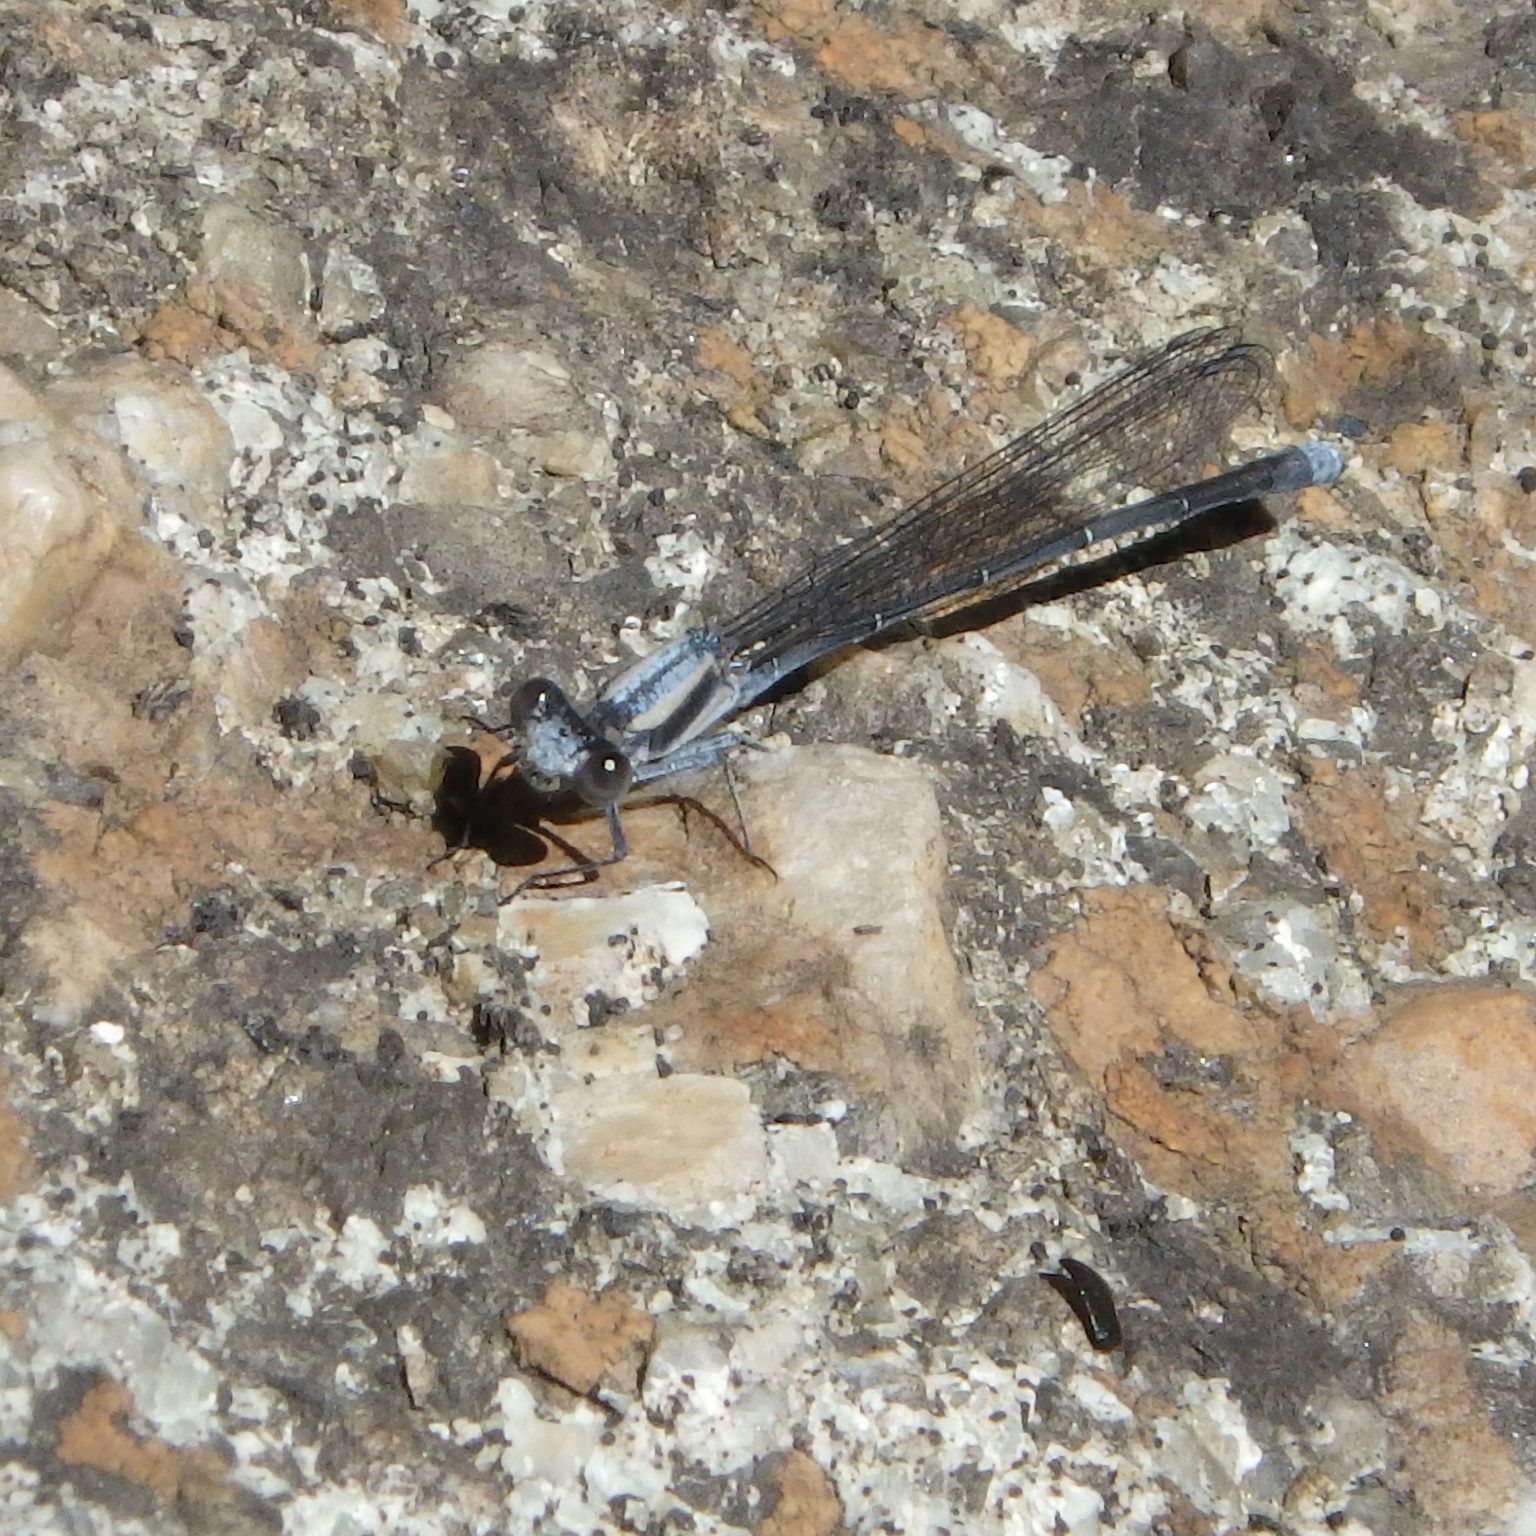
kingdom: Animalia
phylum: Arthropoda
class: Insecta
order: Odonata
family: Coenagrionidae
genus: Argia
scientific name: Argia moesta
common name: Powdered dancer
